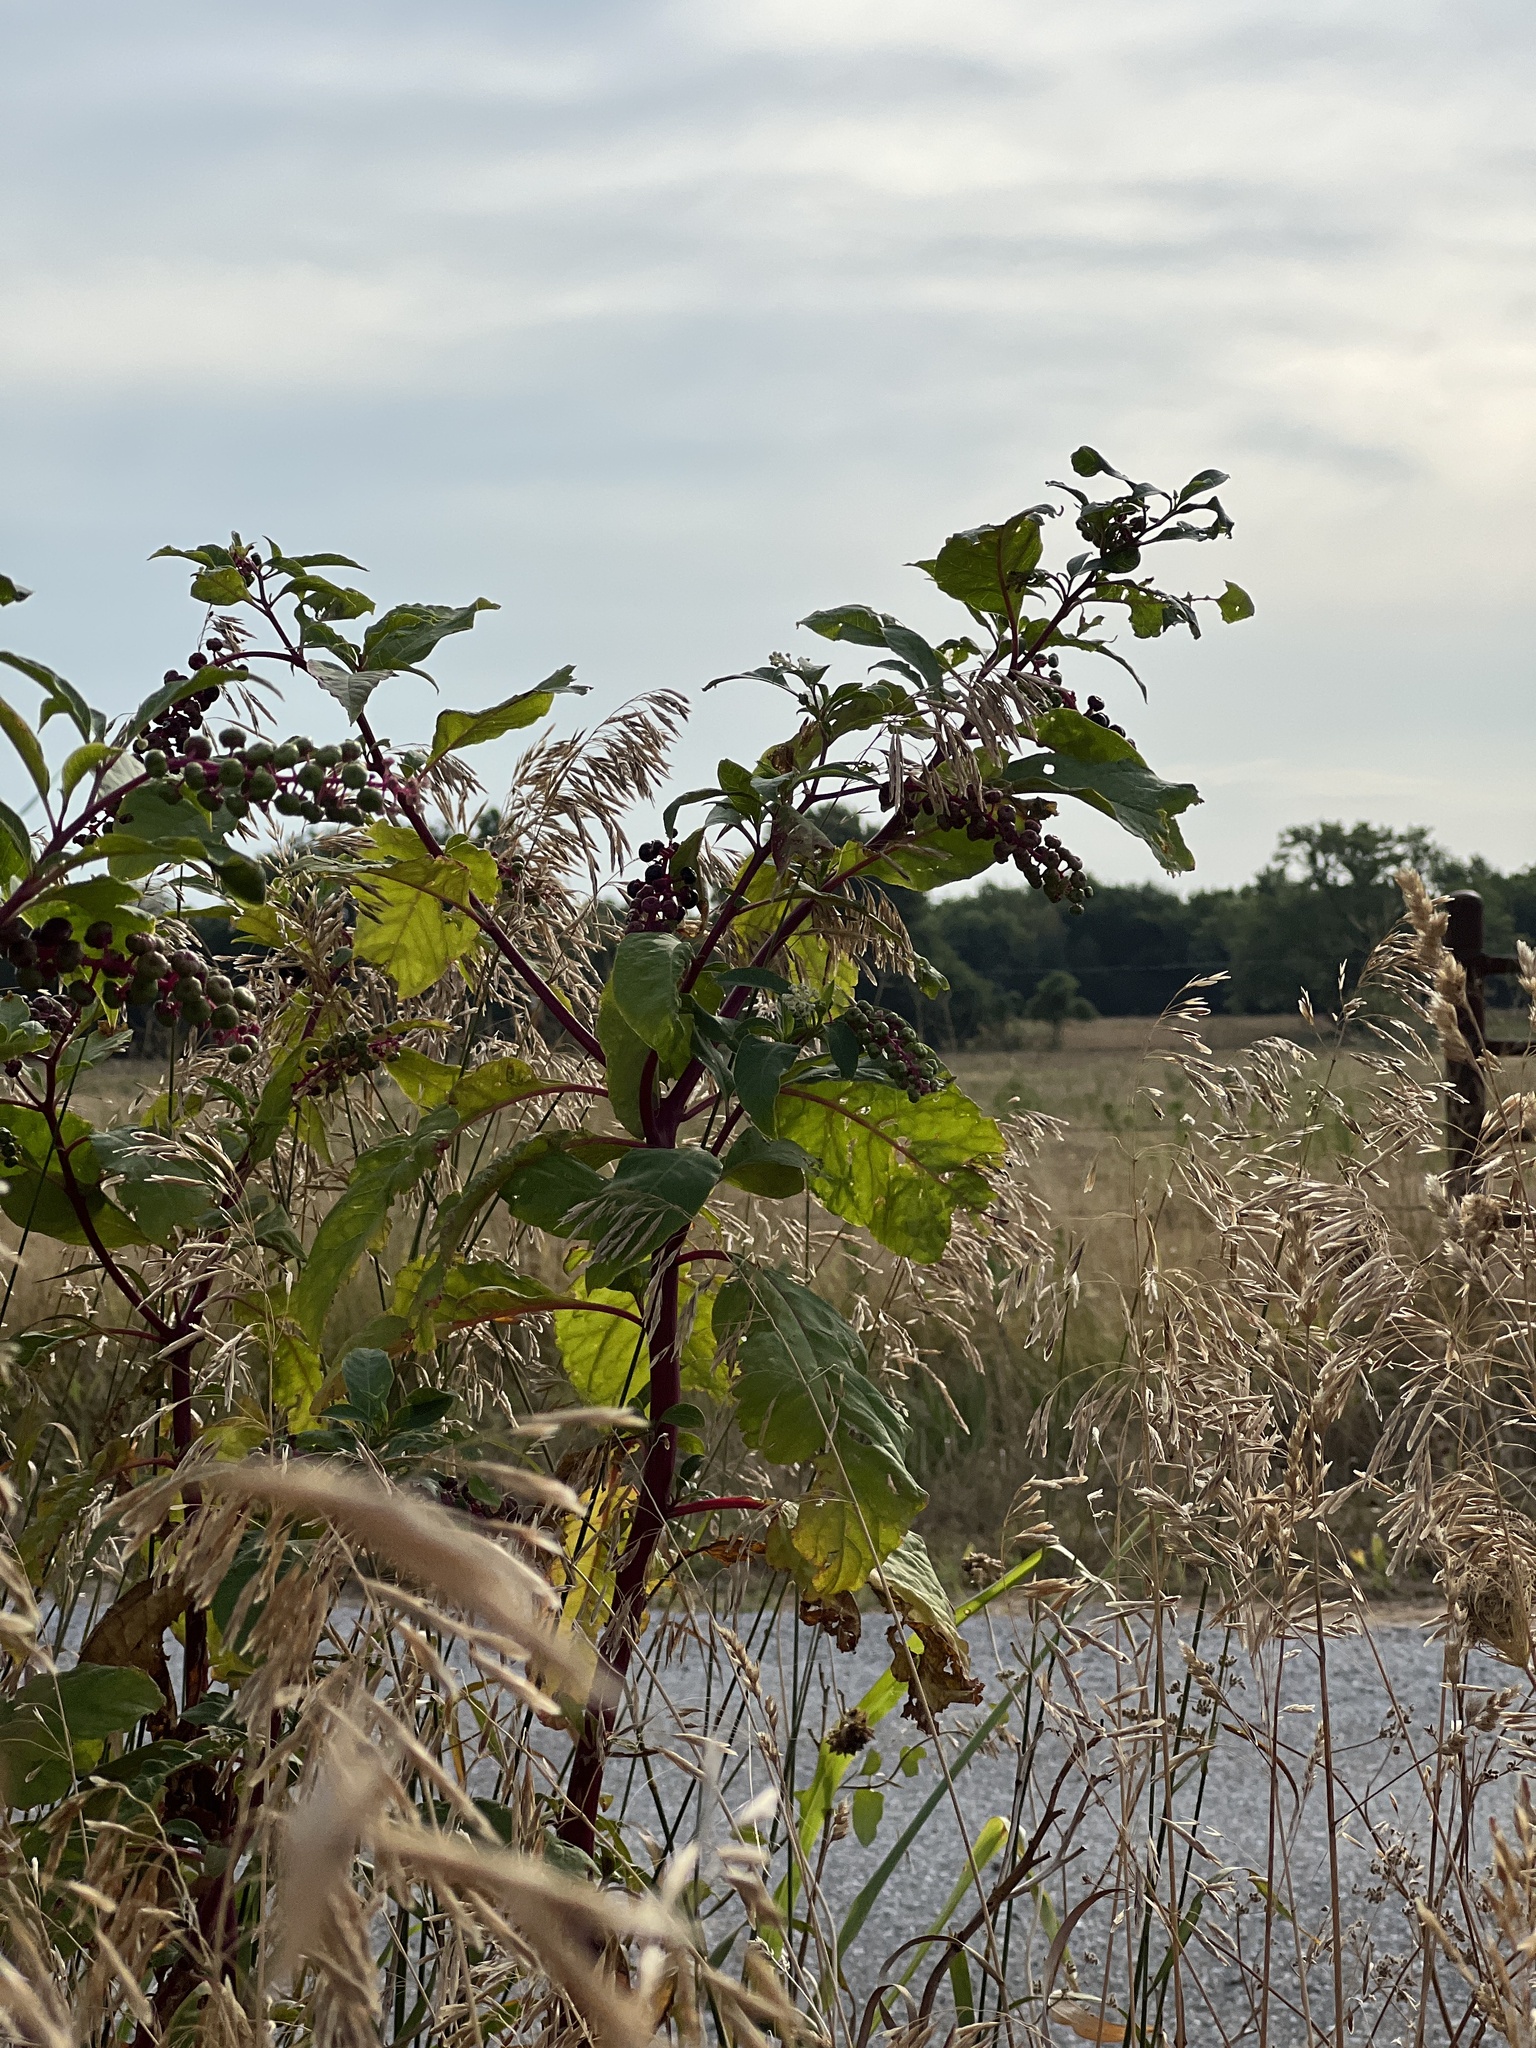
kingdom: Plantae
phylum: Tracheophyta
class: Magnoliopsida
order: Caryophyllales
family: Phytolaccaceae
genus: Phytolacca
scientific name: Phytolacca americana
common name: American pokeweed
